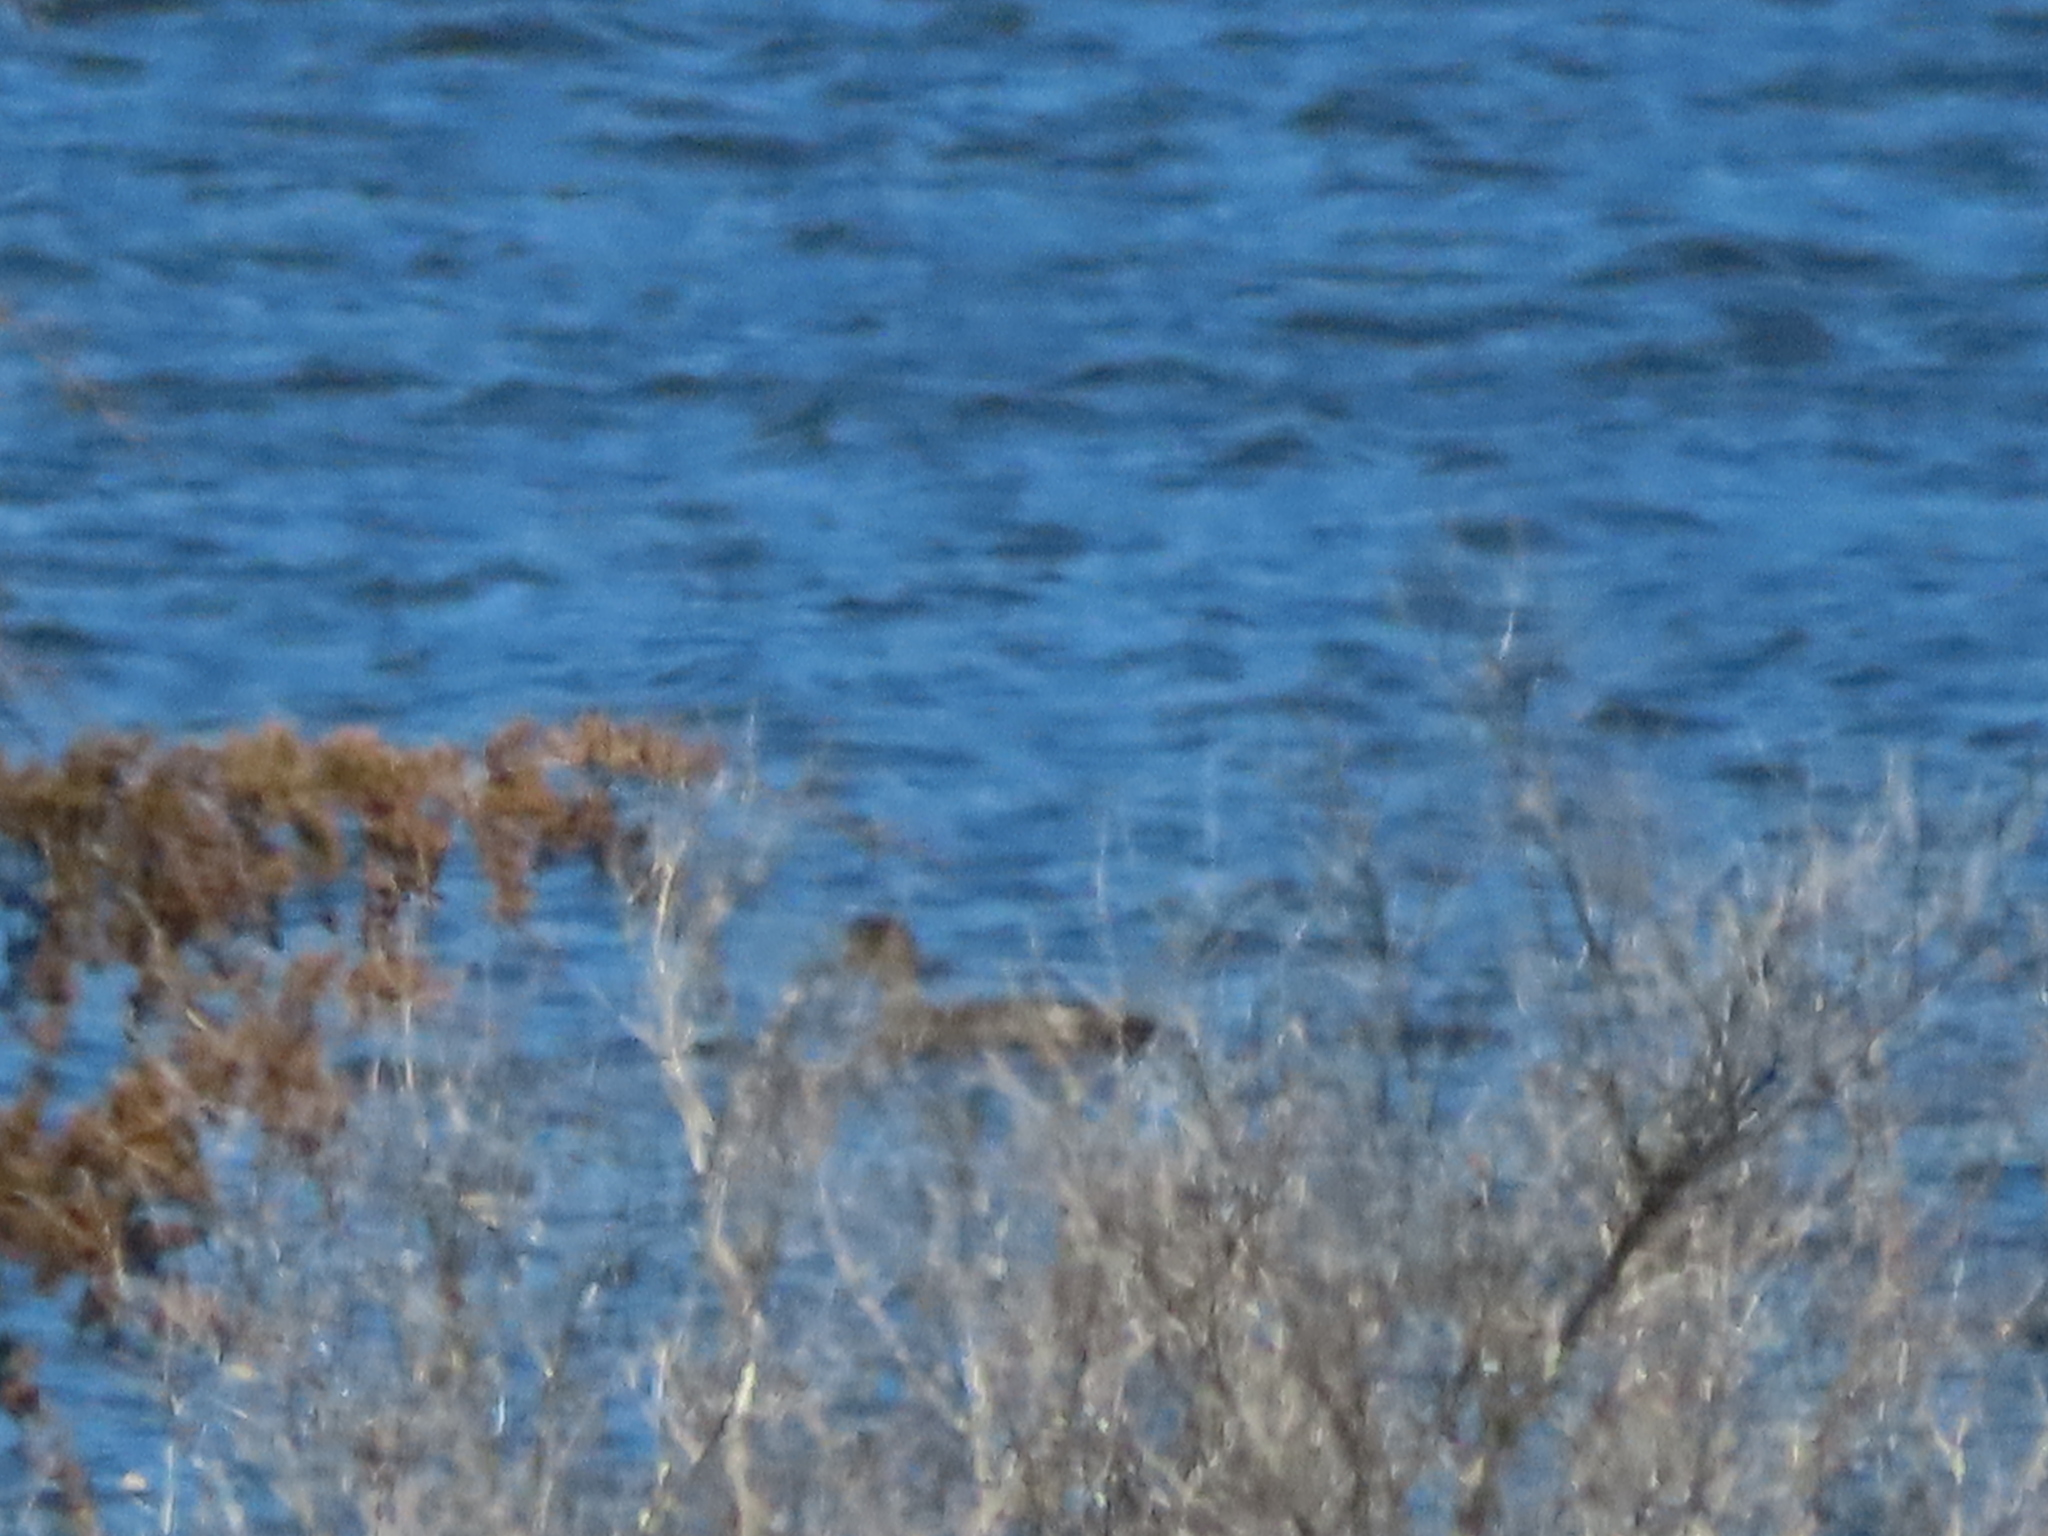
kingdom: Animalia
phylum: Chordata
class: Aves
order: Anseriformes
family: Anatidae
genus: Mareca
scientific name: Mareca strepera
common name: Gadwall
